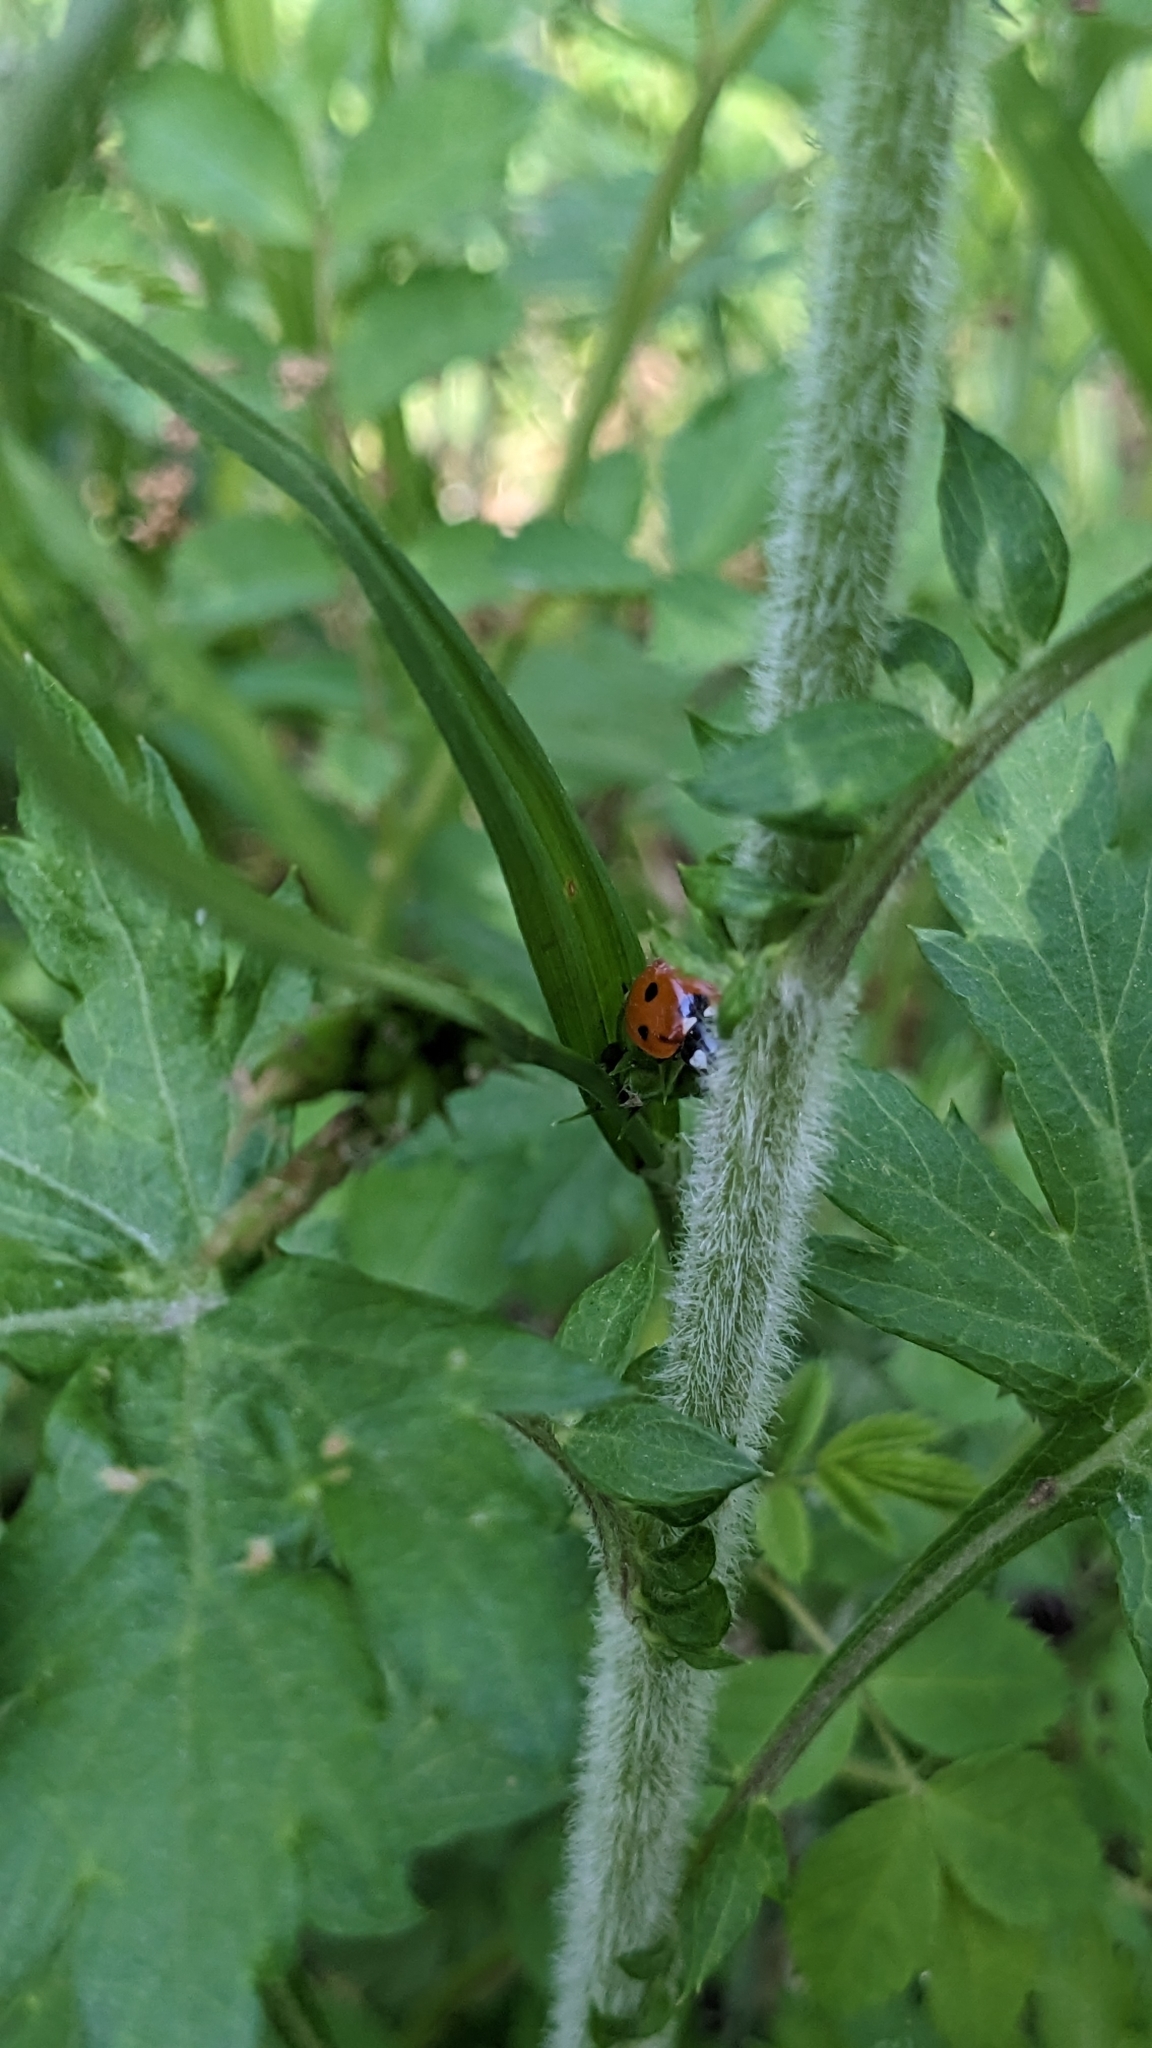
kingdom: Animalia
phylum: Arthropoda
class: Insecta
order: Coleoptera
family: Coccinellidae
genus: Coccinella
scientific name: Coccinella septempunctata
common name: Sevenspotted lady beetle
